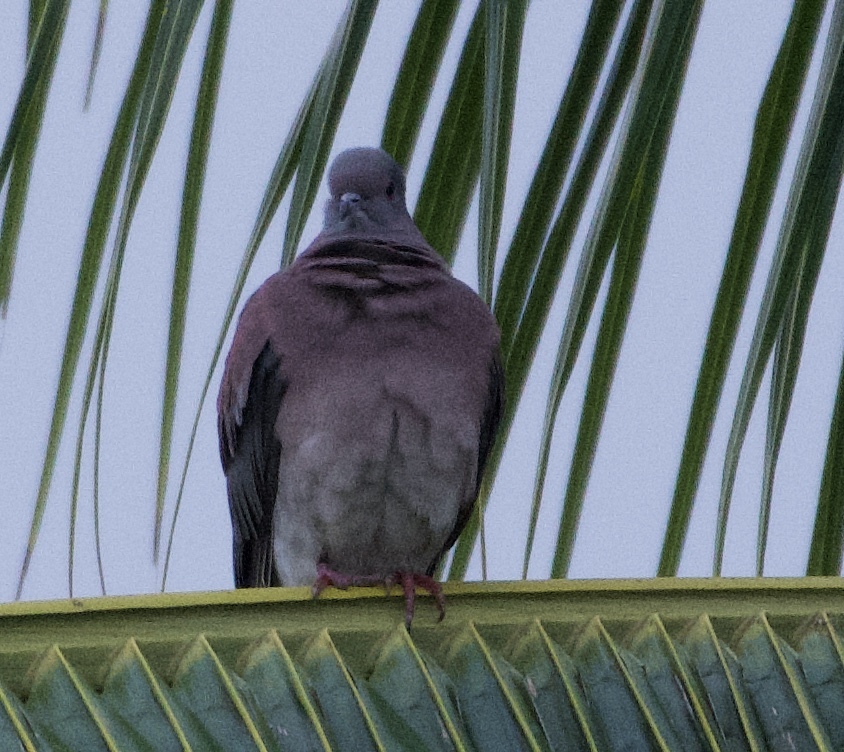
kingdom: Animalia
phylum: Chordata
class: Aves
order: Columbiformes
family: Columbidae
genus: Patagioenas
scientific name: Patagioenas cayennensis
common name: Pale-vented pigeon
